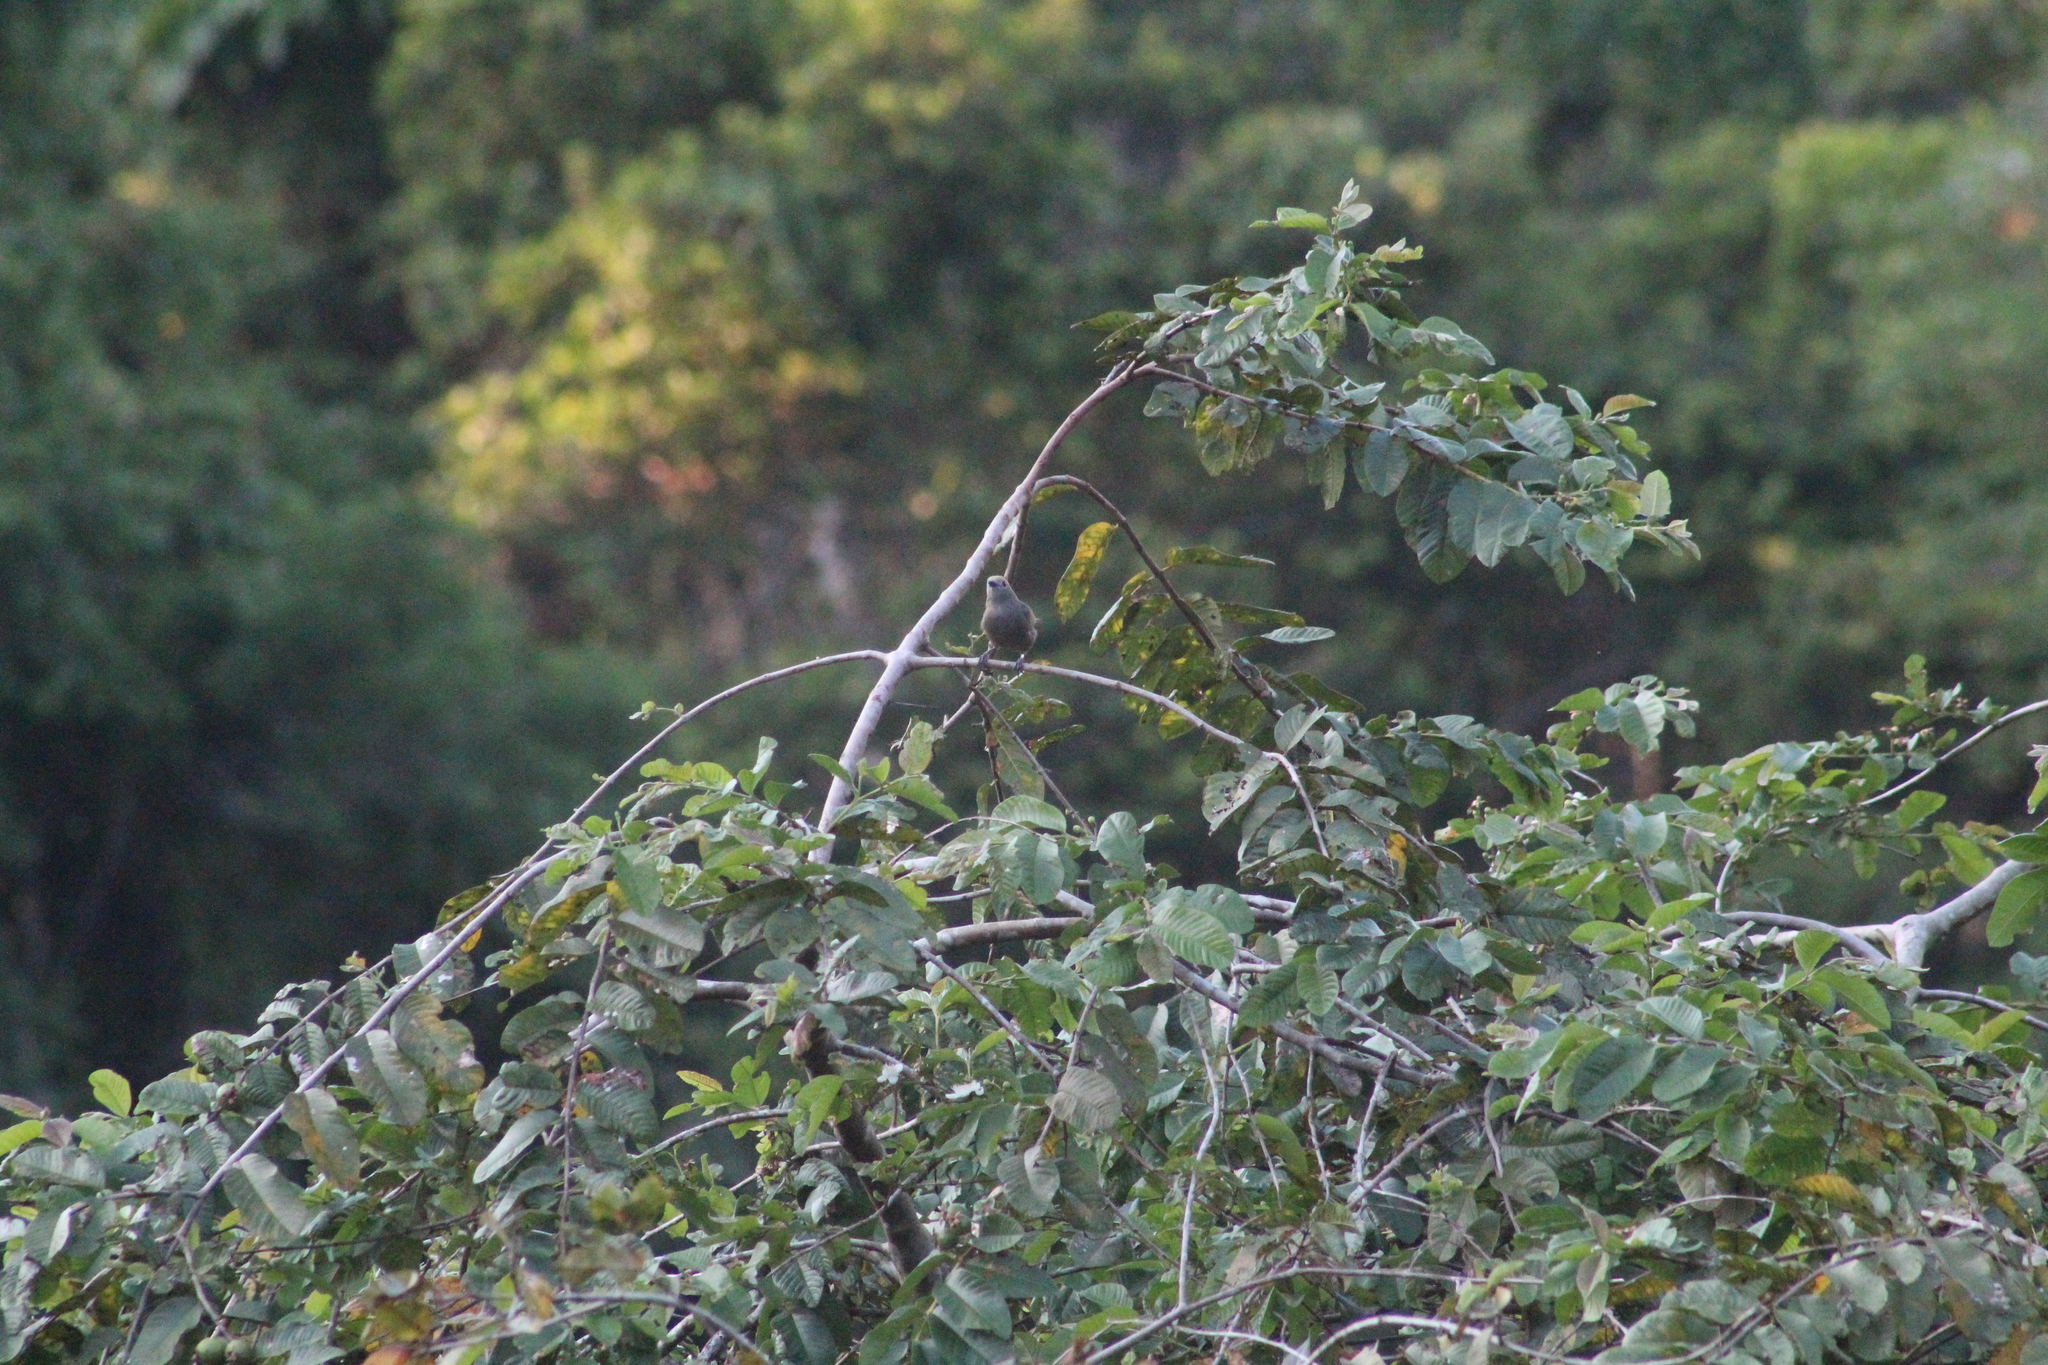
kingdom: Animalia
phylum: Chordata
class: Aves
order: Passeriformes
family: Thraupidae
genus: Thraupis
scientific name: Thraupis palmarum
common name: Palm tanager
